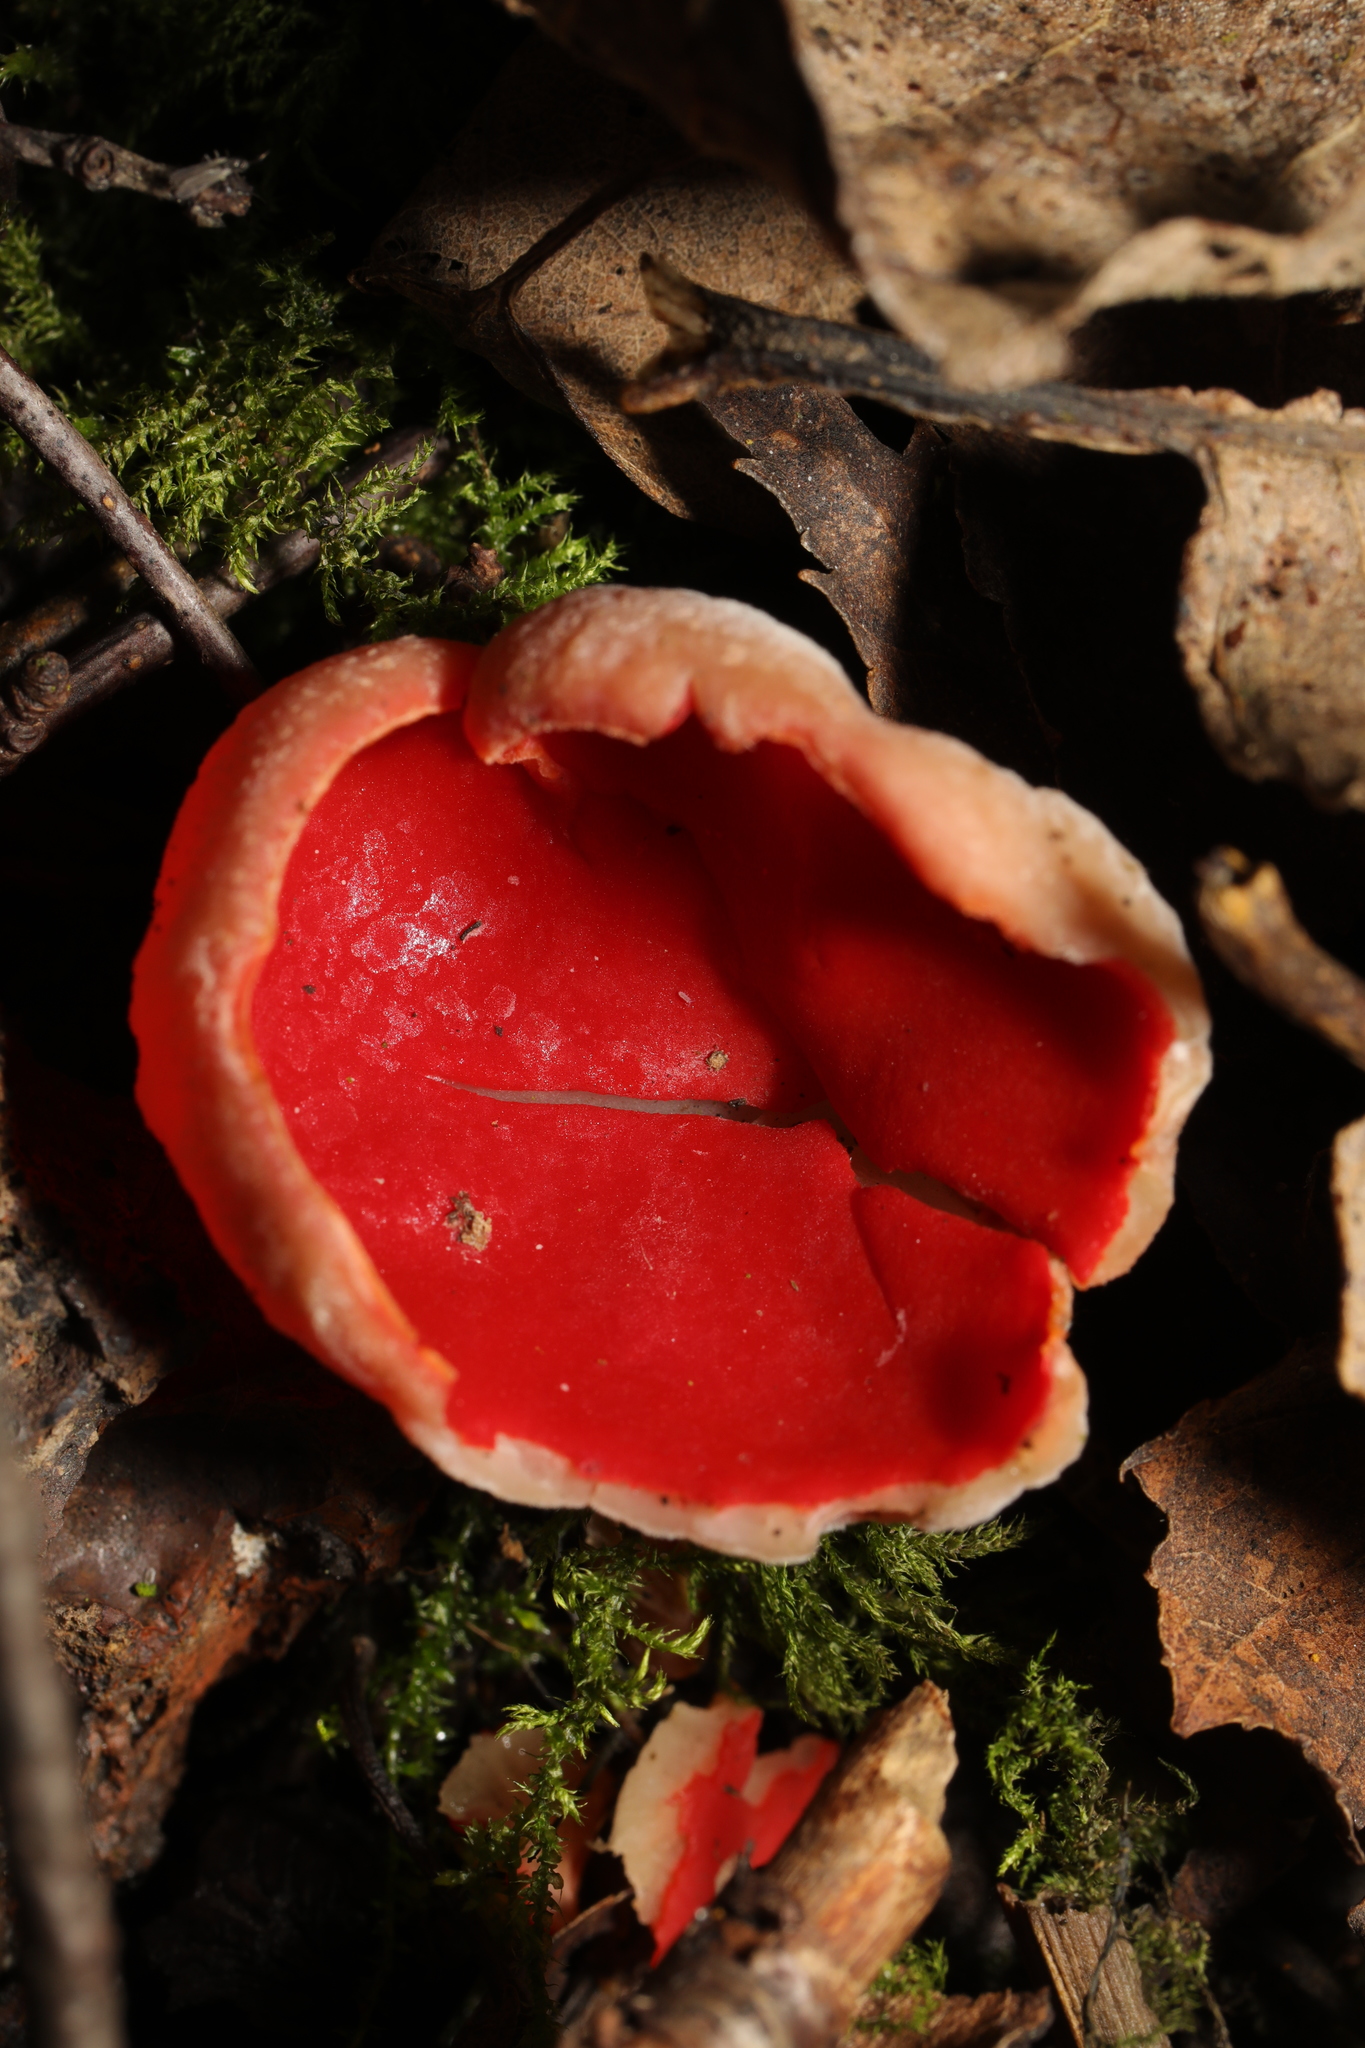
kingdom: Fungi
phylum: Ascomycota
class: Pezizomycetes
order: Pezizales
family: Sarcoscyphaceae
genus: Sarcoscypha
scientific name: Sarcoscypha
